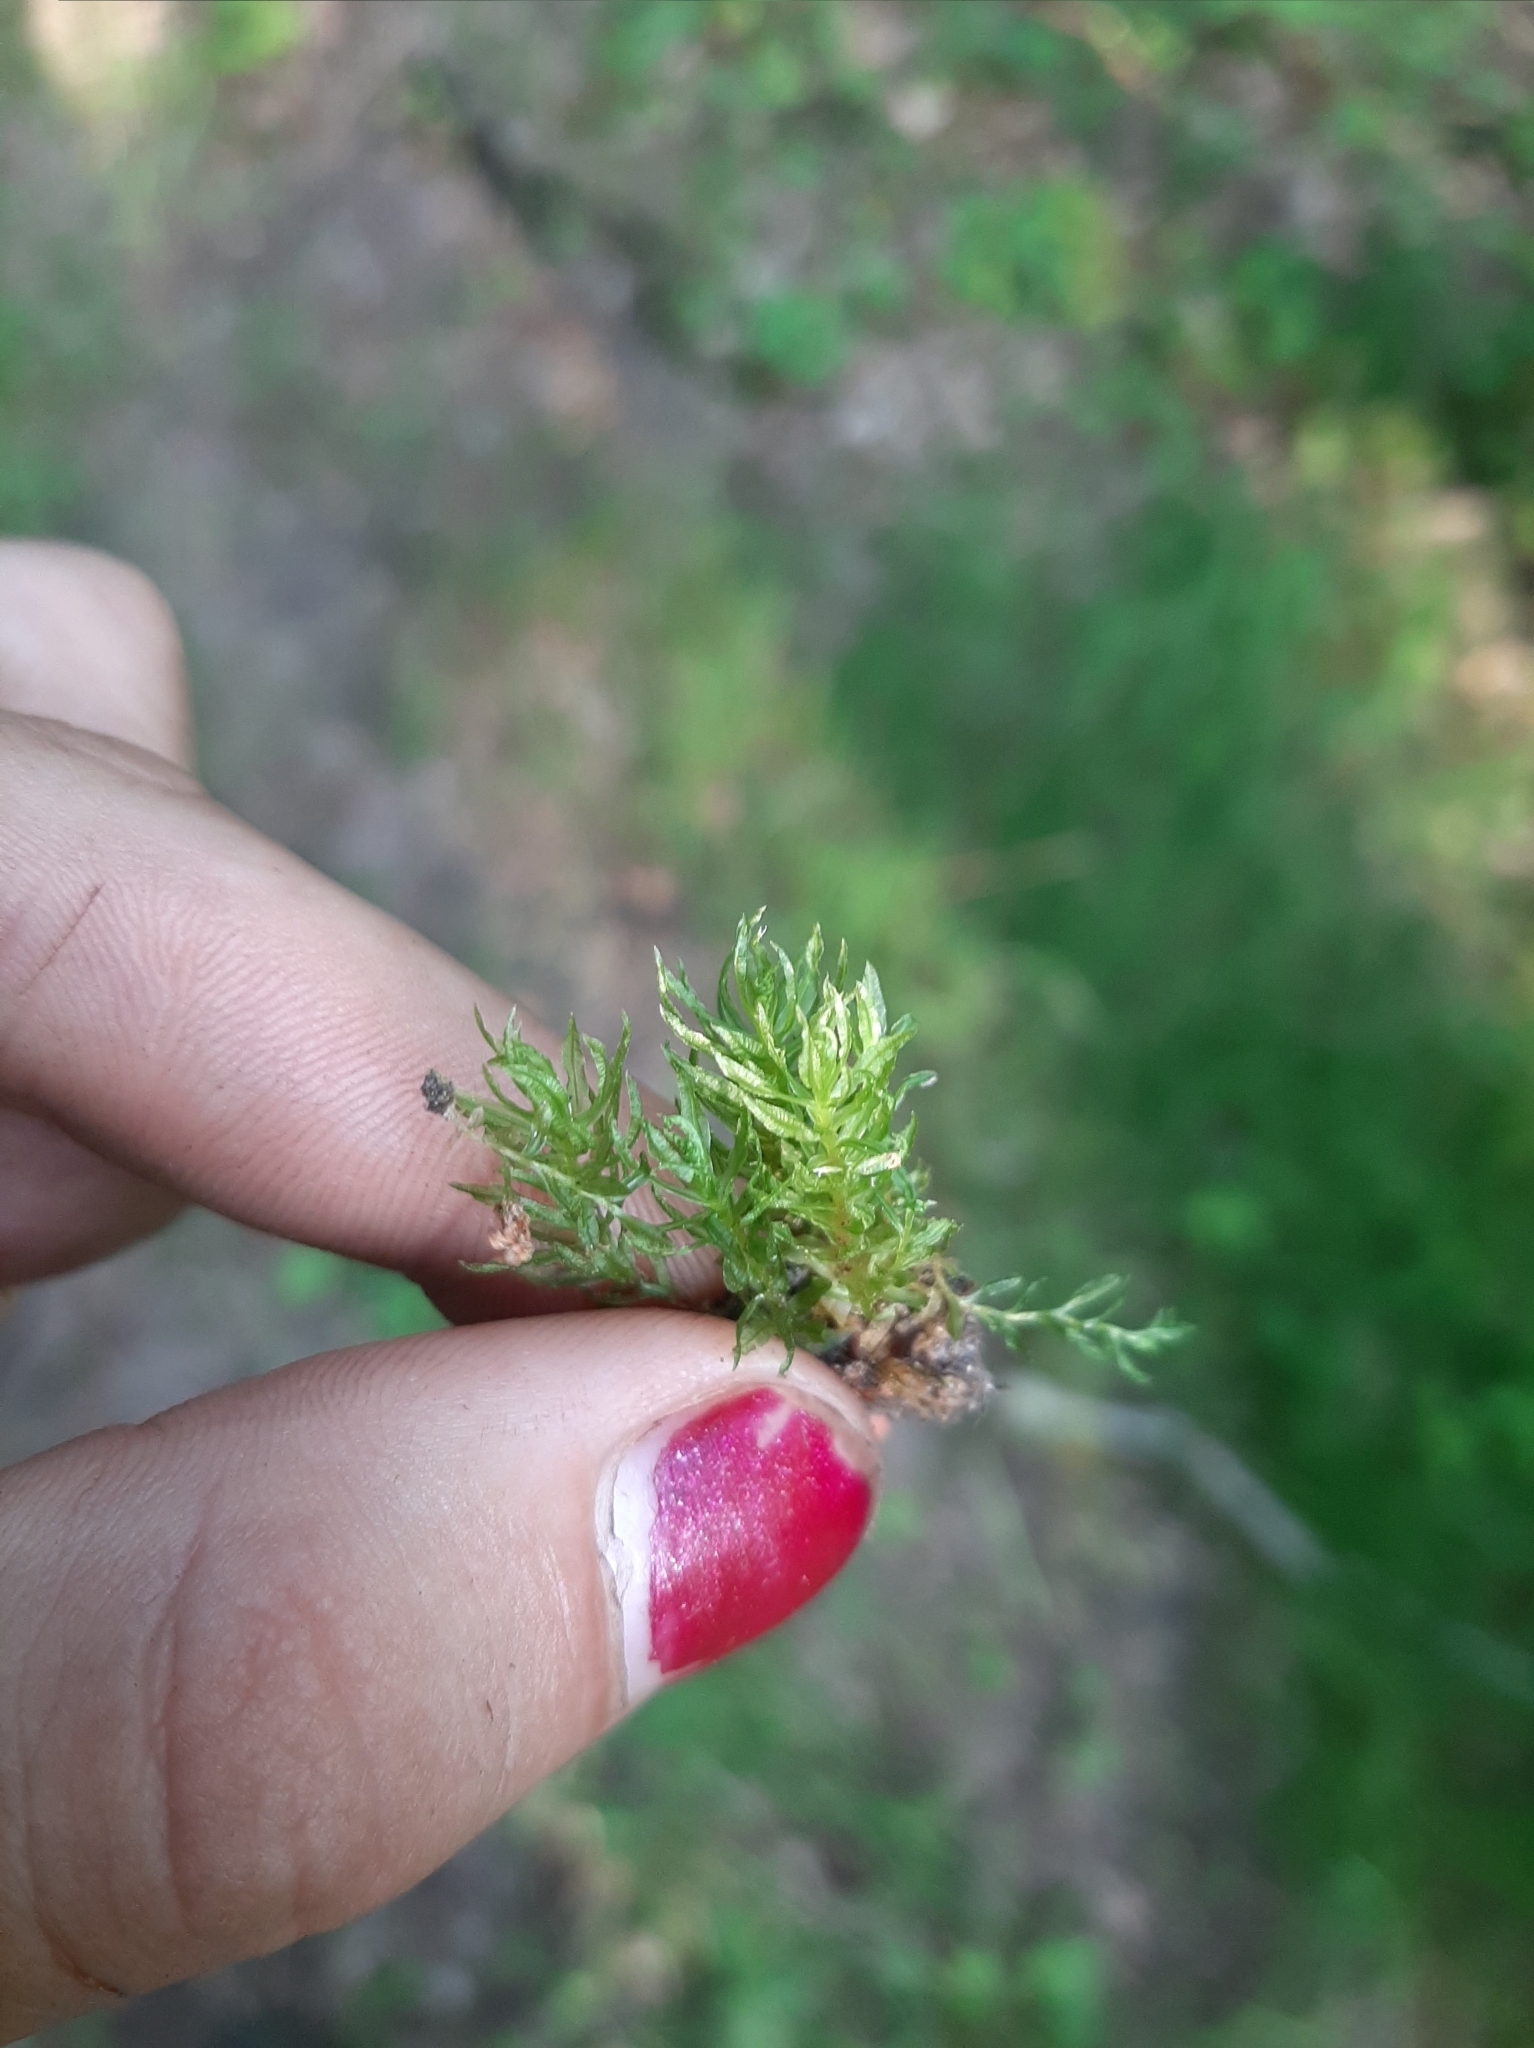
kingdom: Plantae
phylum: Bryophyta
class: Polytrichopsida
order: Polytrichales
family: Polytrichaceae
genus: Atrichum
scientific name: Atrichum undulatum
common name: Common smoothcap
